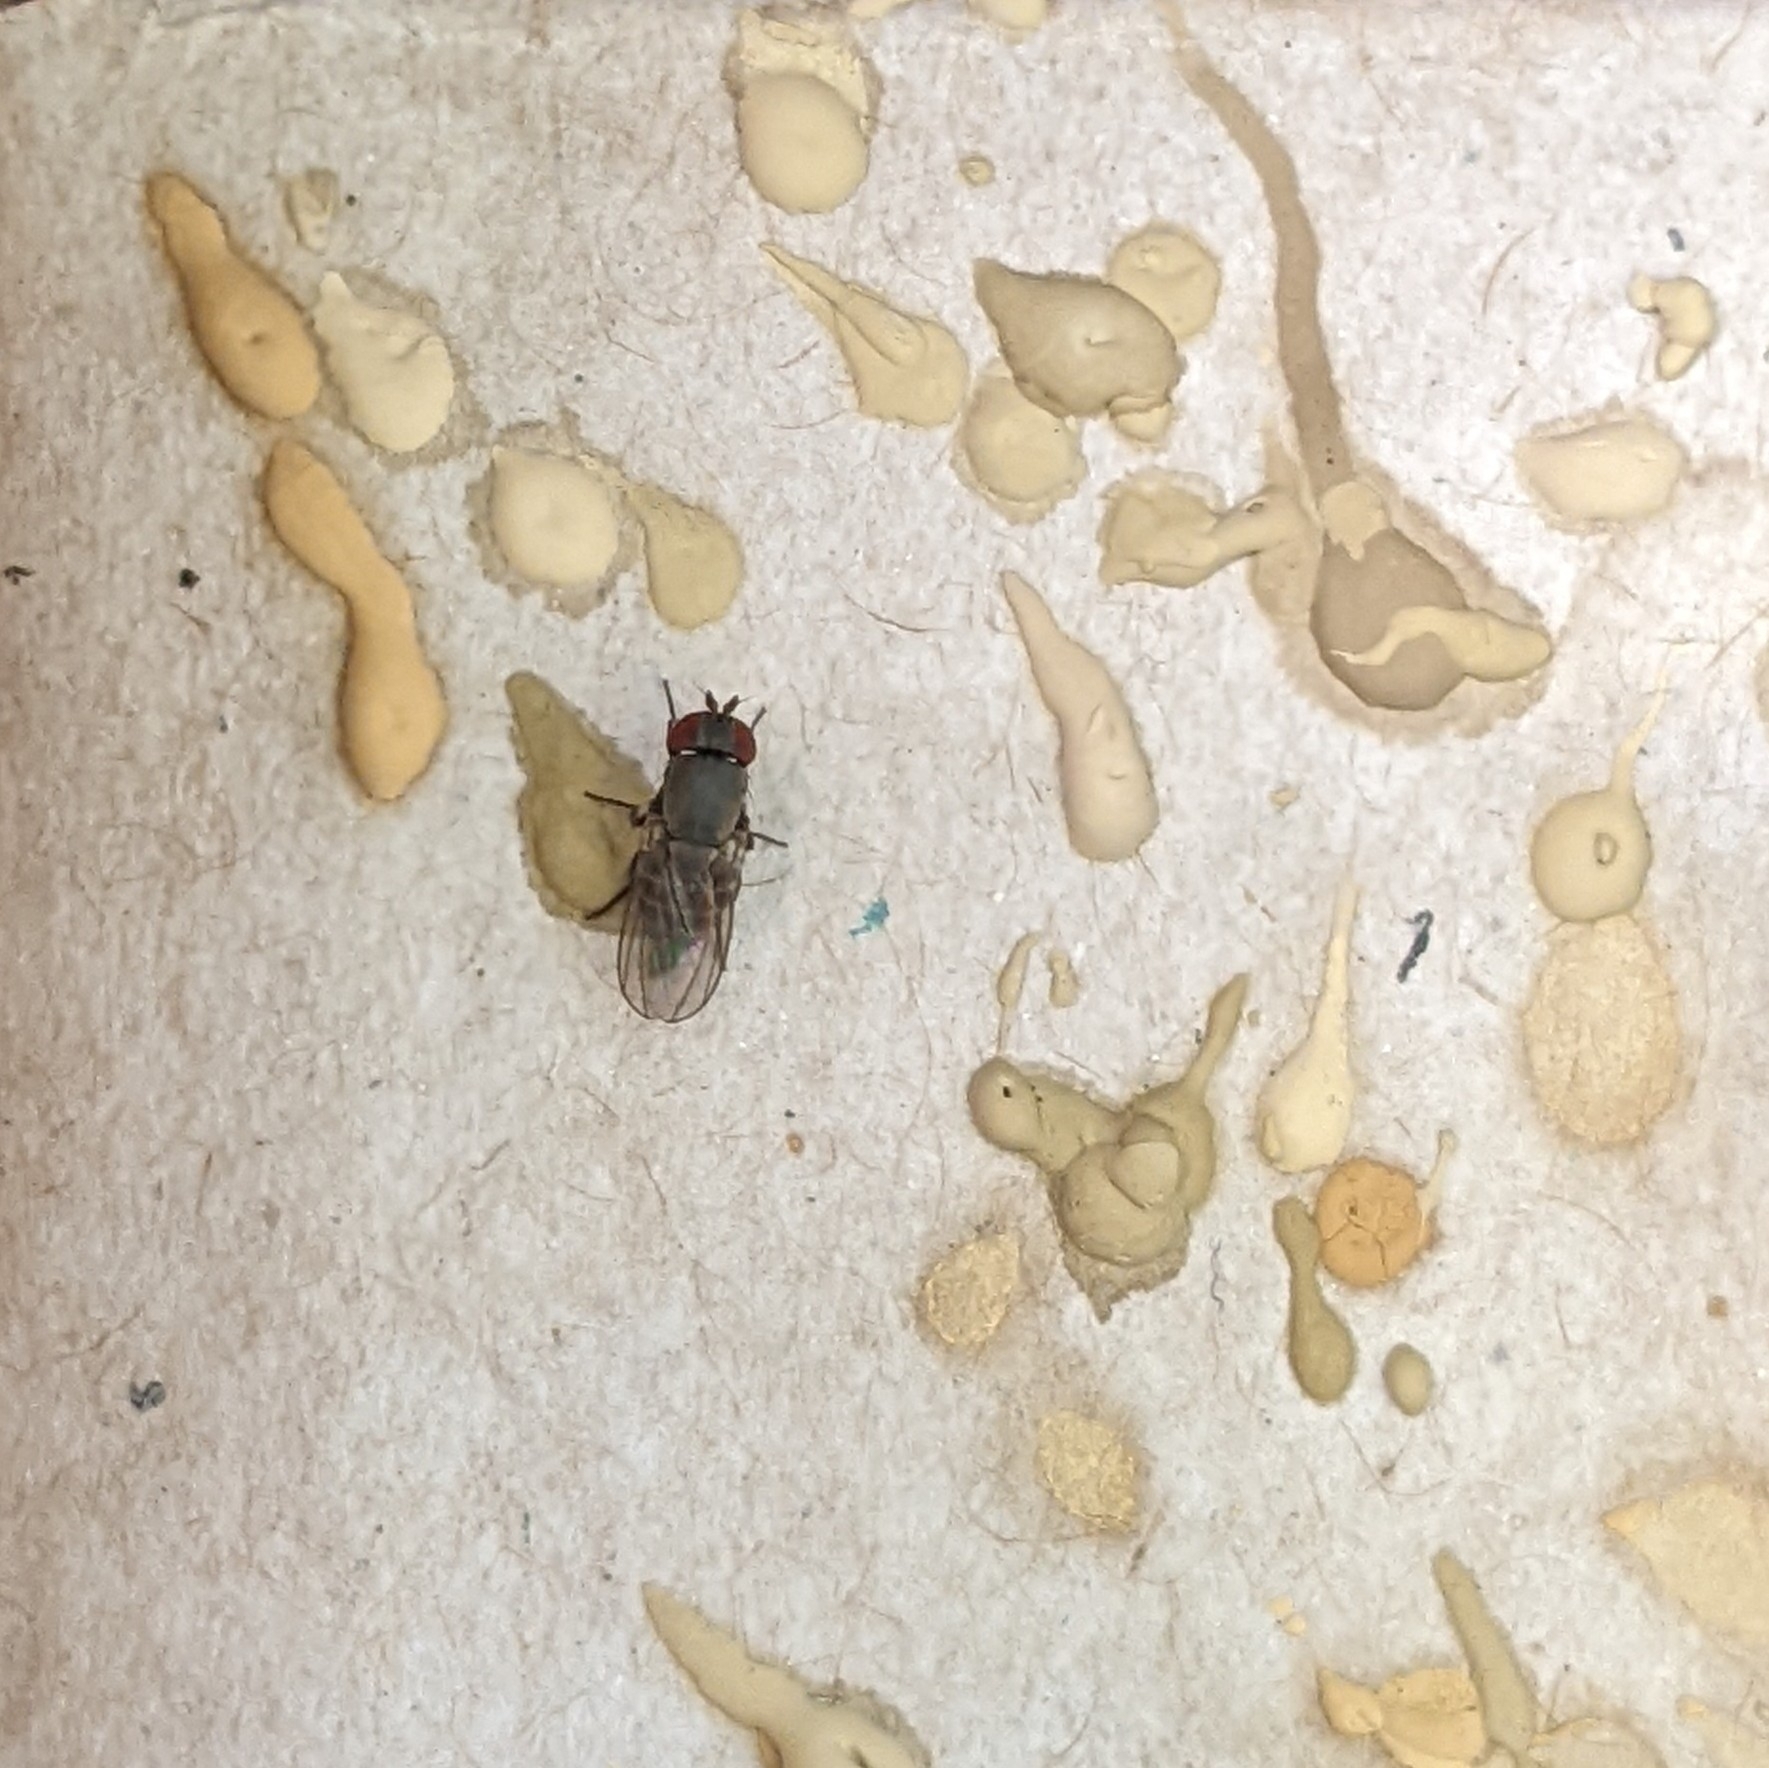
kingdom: Animalia
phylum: Arthropoda
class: Insecta
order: Diptera
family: Drosophilidae
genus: Cacoxenus
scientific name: Cacoxenus indagator
